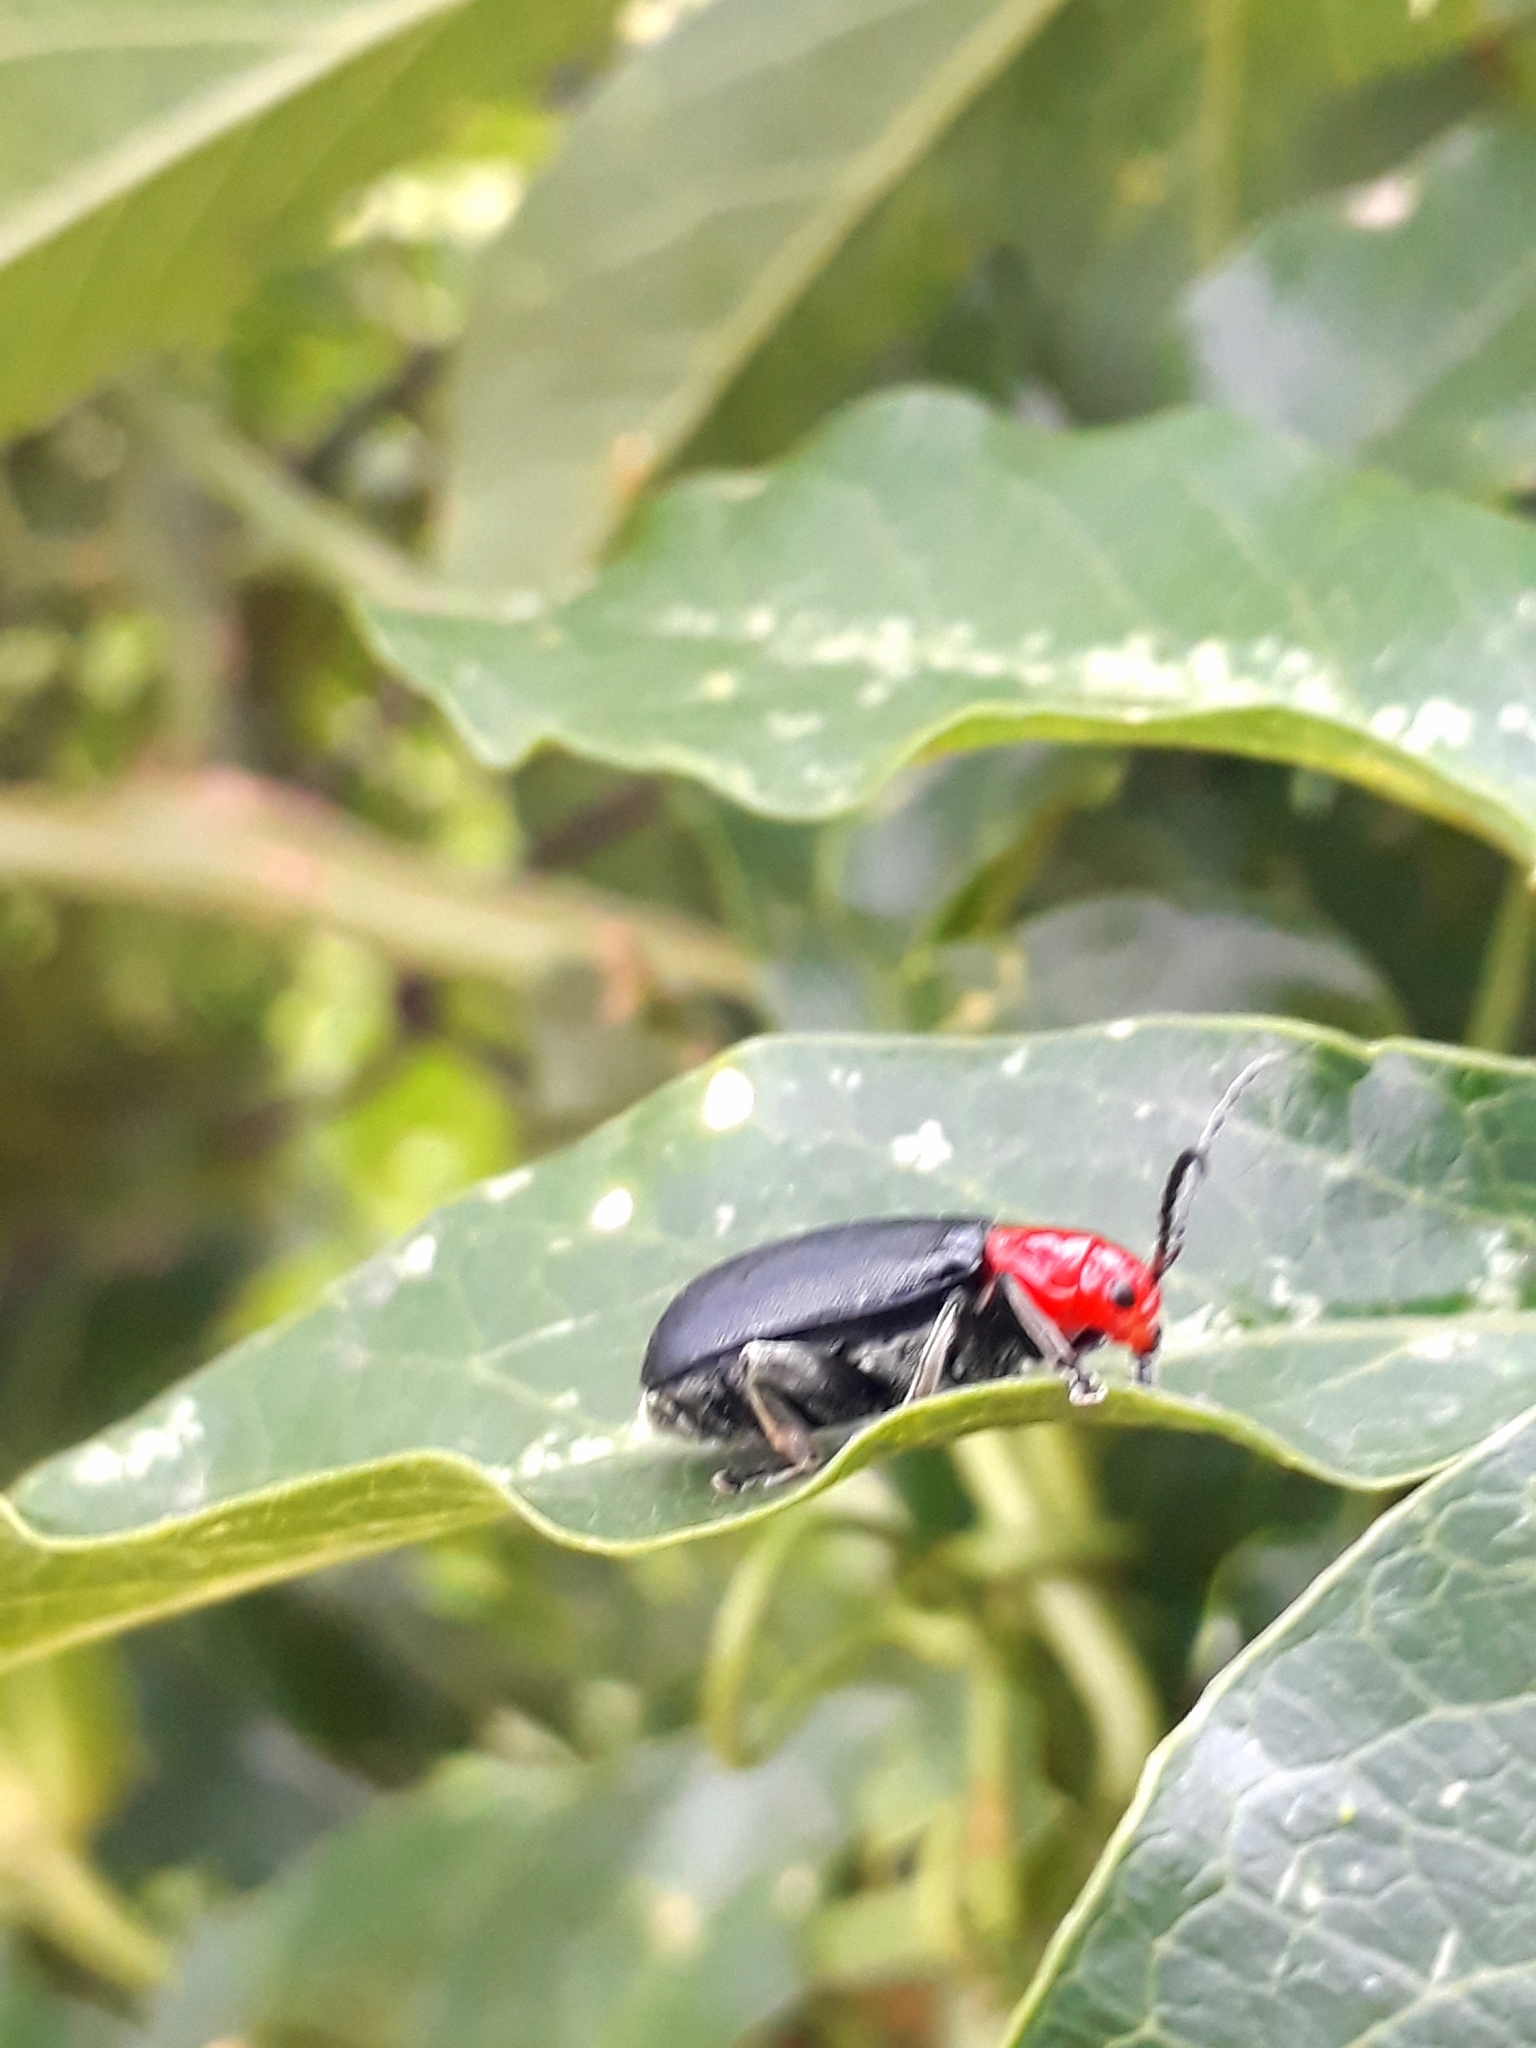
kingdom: Animalia
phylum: Arthropoda
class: Insecta
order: Coleoptera
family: Chrysomelidae
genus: Cacoscelis
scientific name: Cacoscelis
